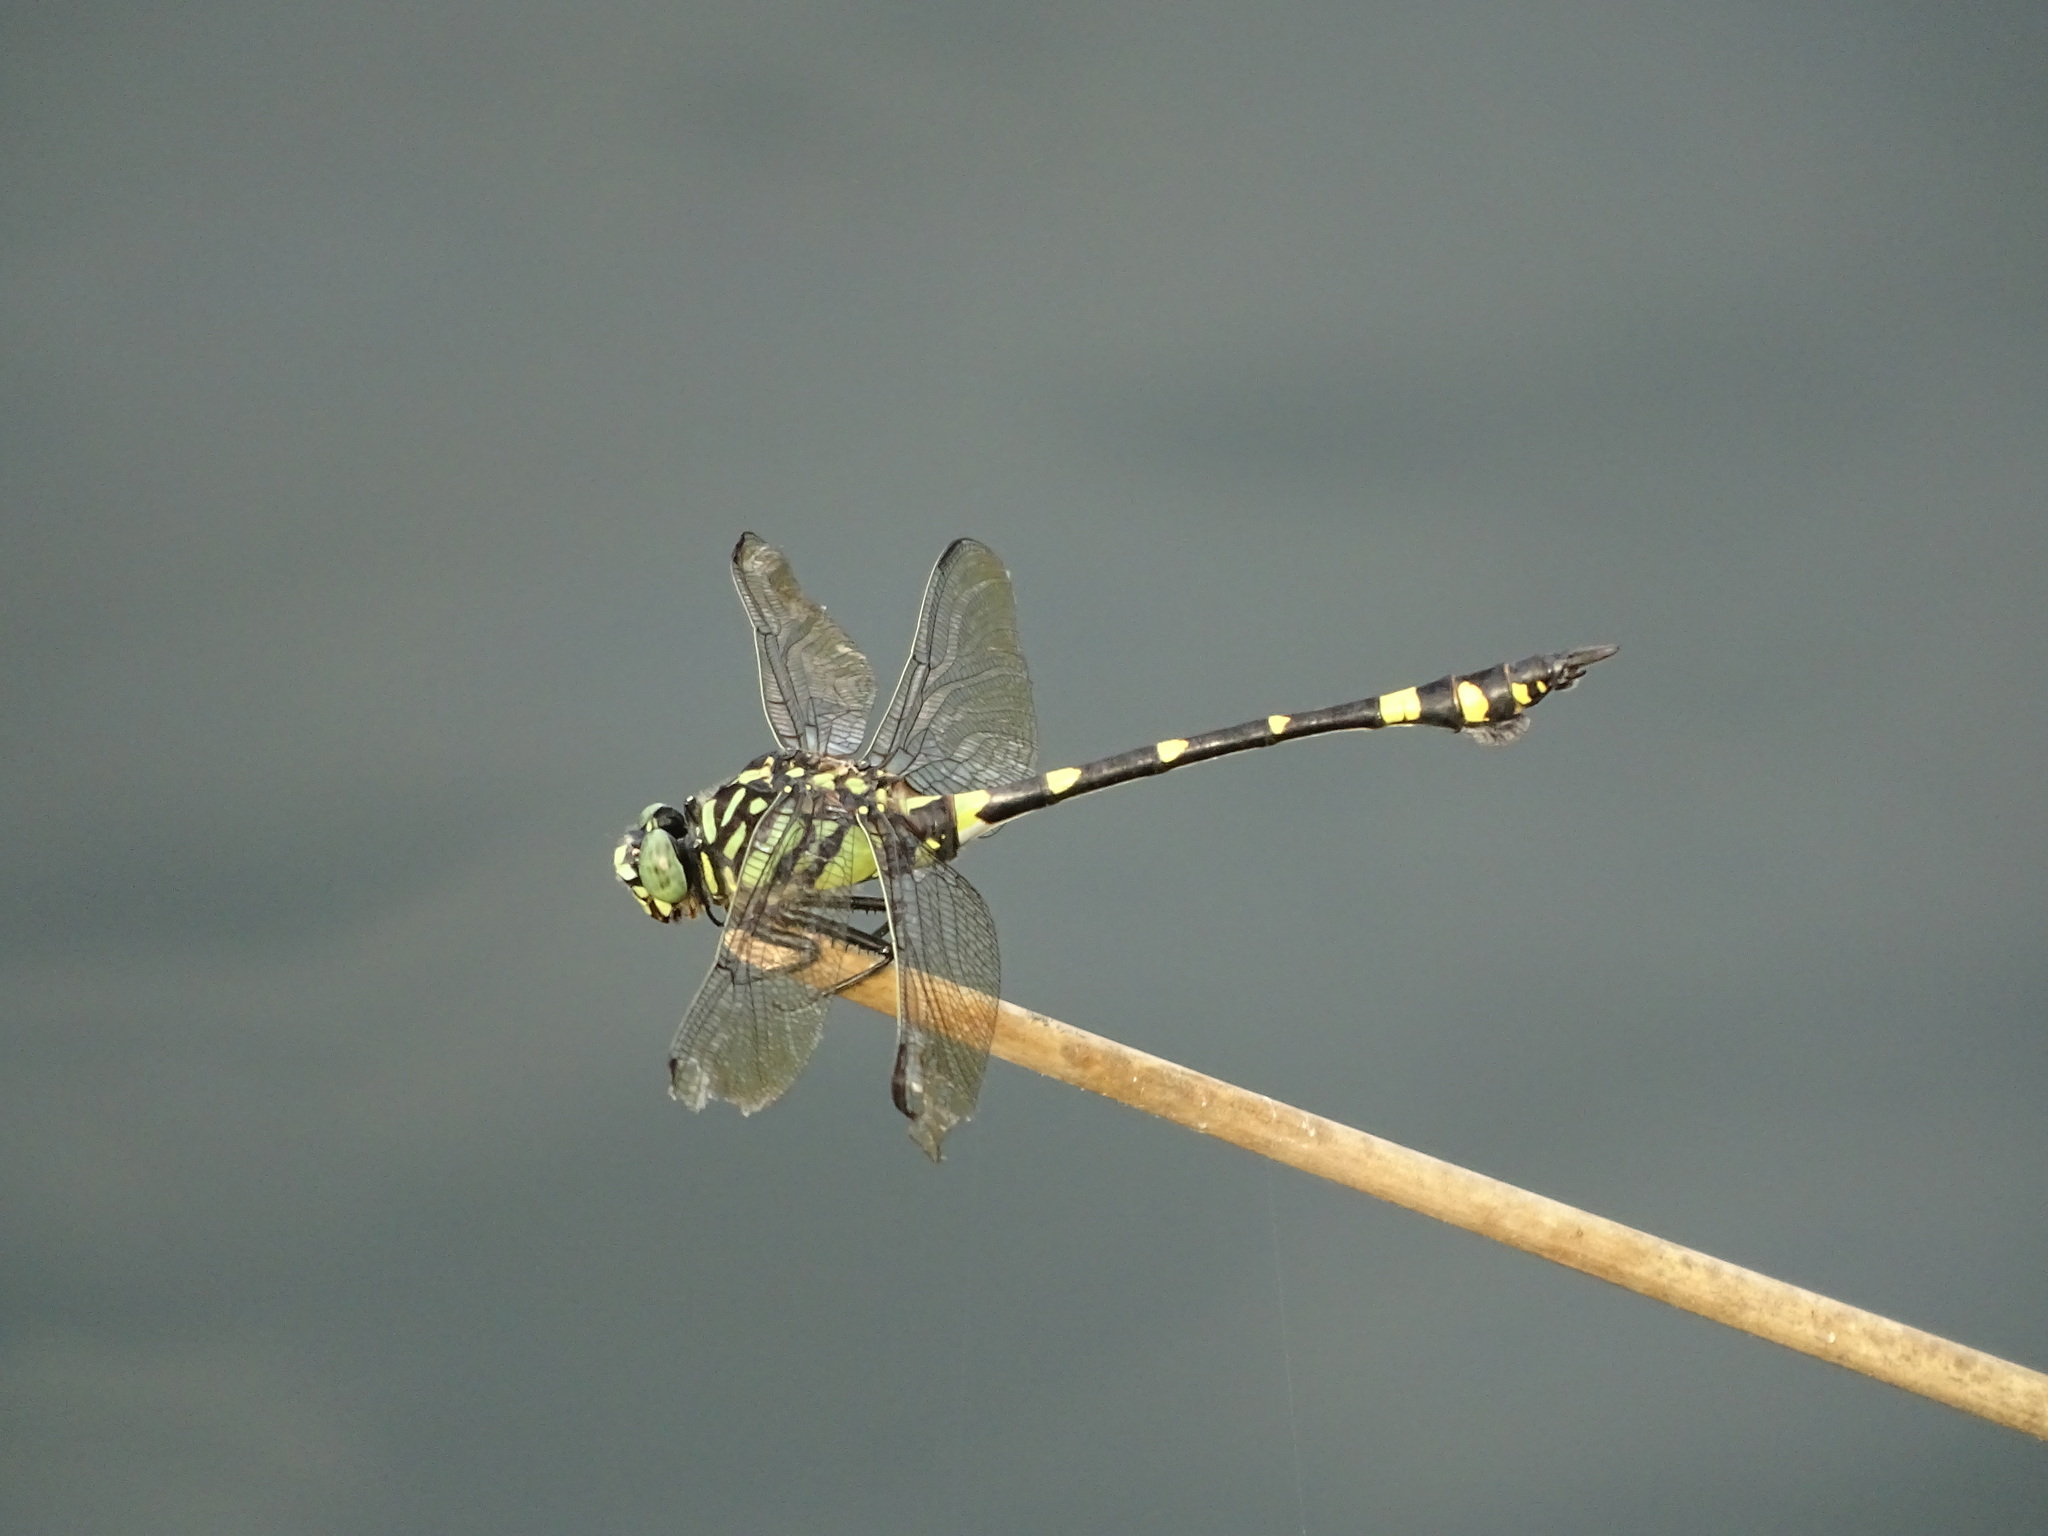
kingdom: Animalia
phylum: Arthropoda
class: Insecta
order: Odonata
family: Gomphidae
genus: Ictinogomphus
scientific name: Ictinogomphus rapax
